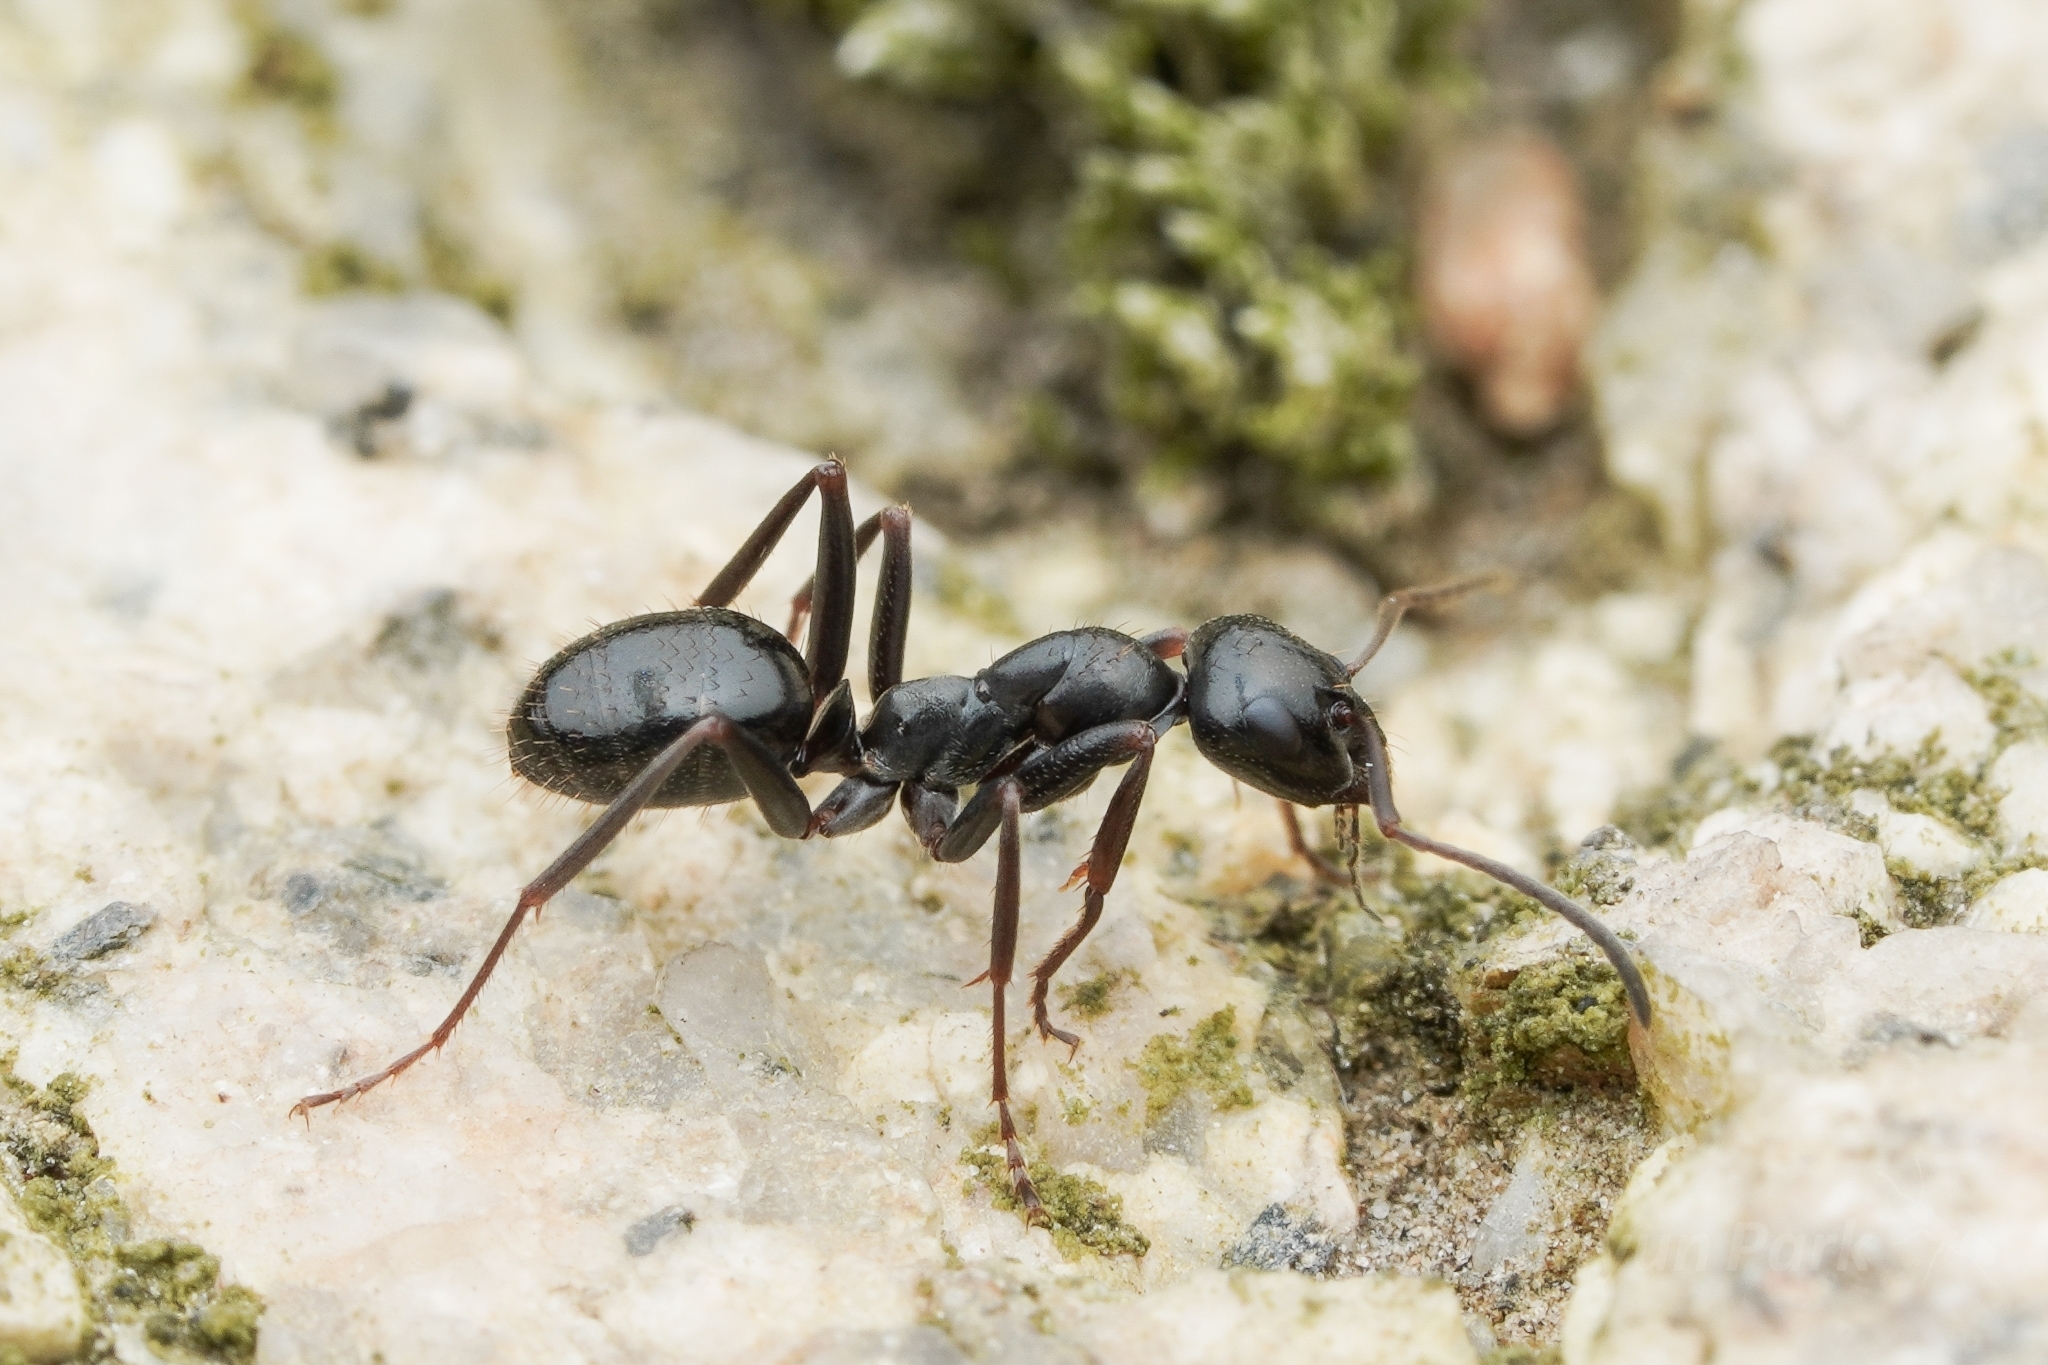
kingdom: Animalia
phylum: Arthropoda
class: Insecta
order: Hymenoptera
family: Formicidae
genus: Formica
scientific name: Formica candida
